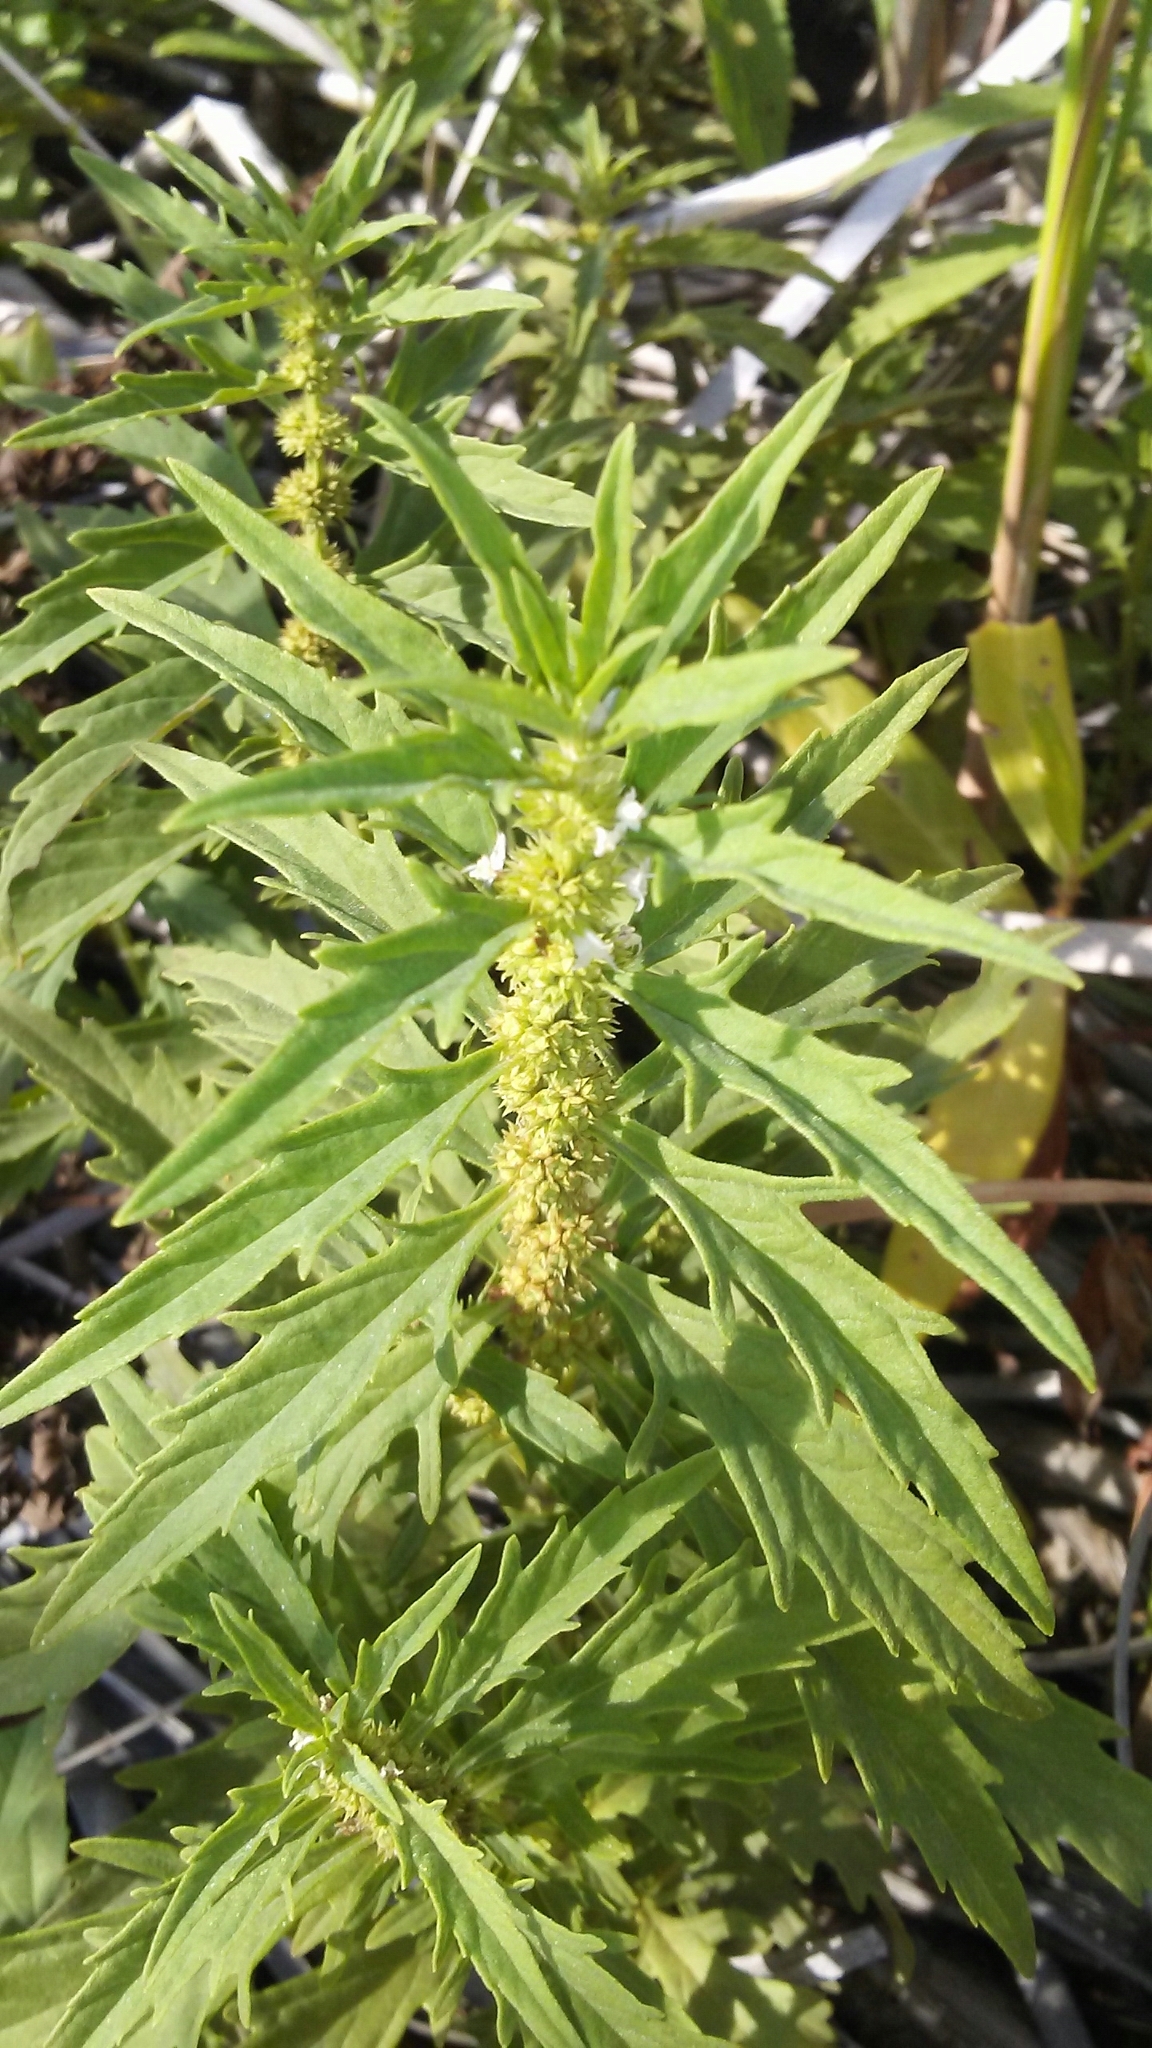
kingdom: Plantae
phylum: Tracheophyta
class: Magnoliopsida
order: Lamiales
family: Lamiaceae
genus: Lycopus
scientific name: Lycopus americanus
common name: American bugleweed
